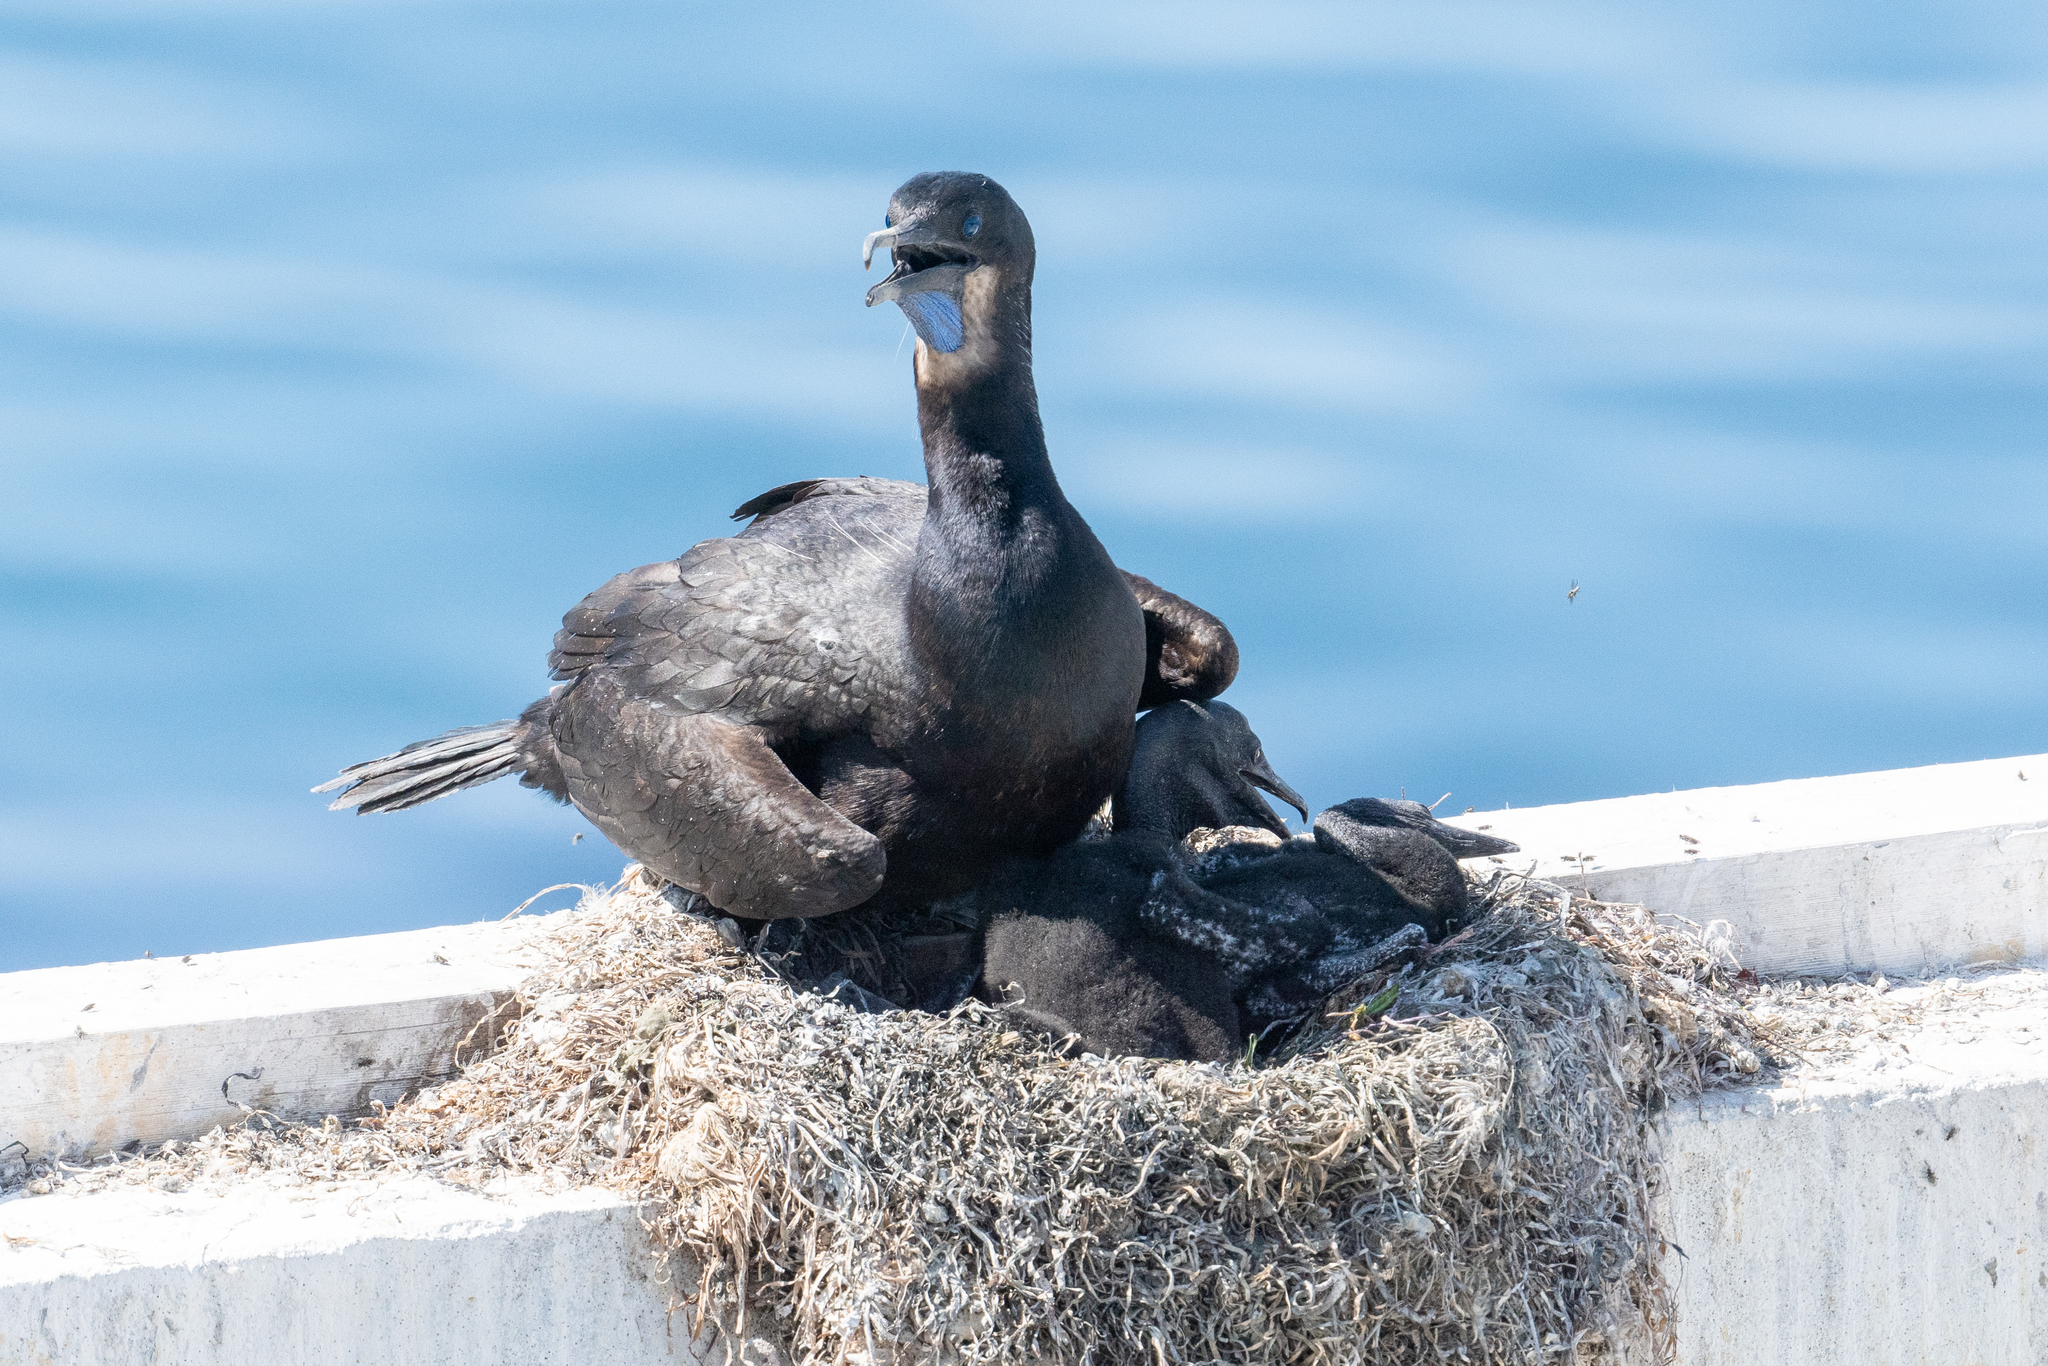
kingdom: Animalia
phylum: Chordata
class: Aves
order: Suliformes
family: Phalacrocoracidae
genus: Urile
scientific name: Urile penicillatus
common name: Brandt's cormorant
